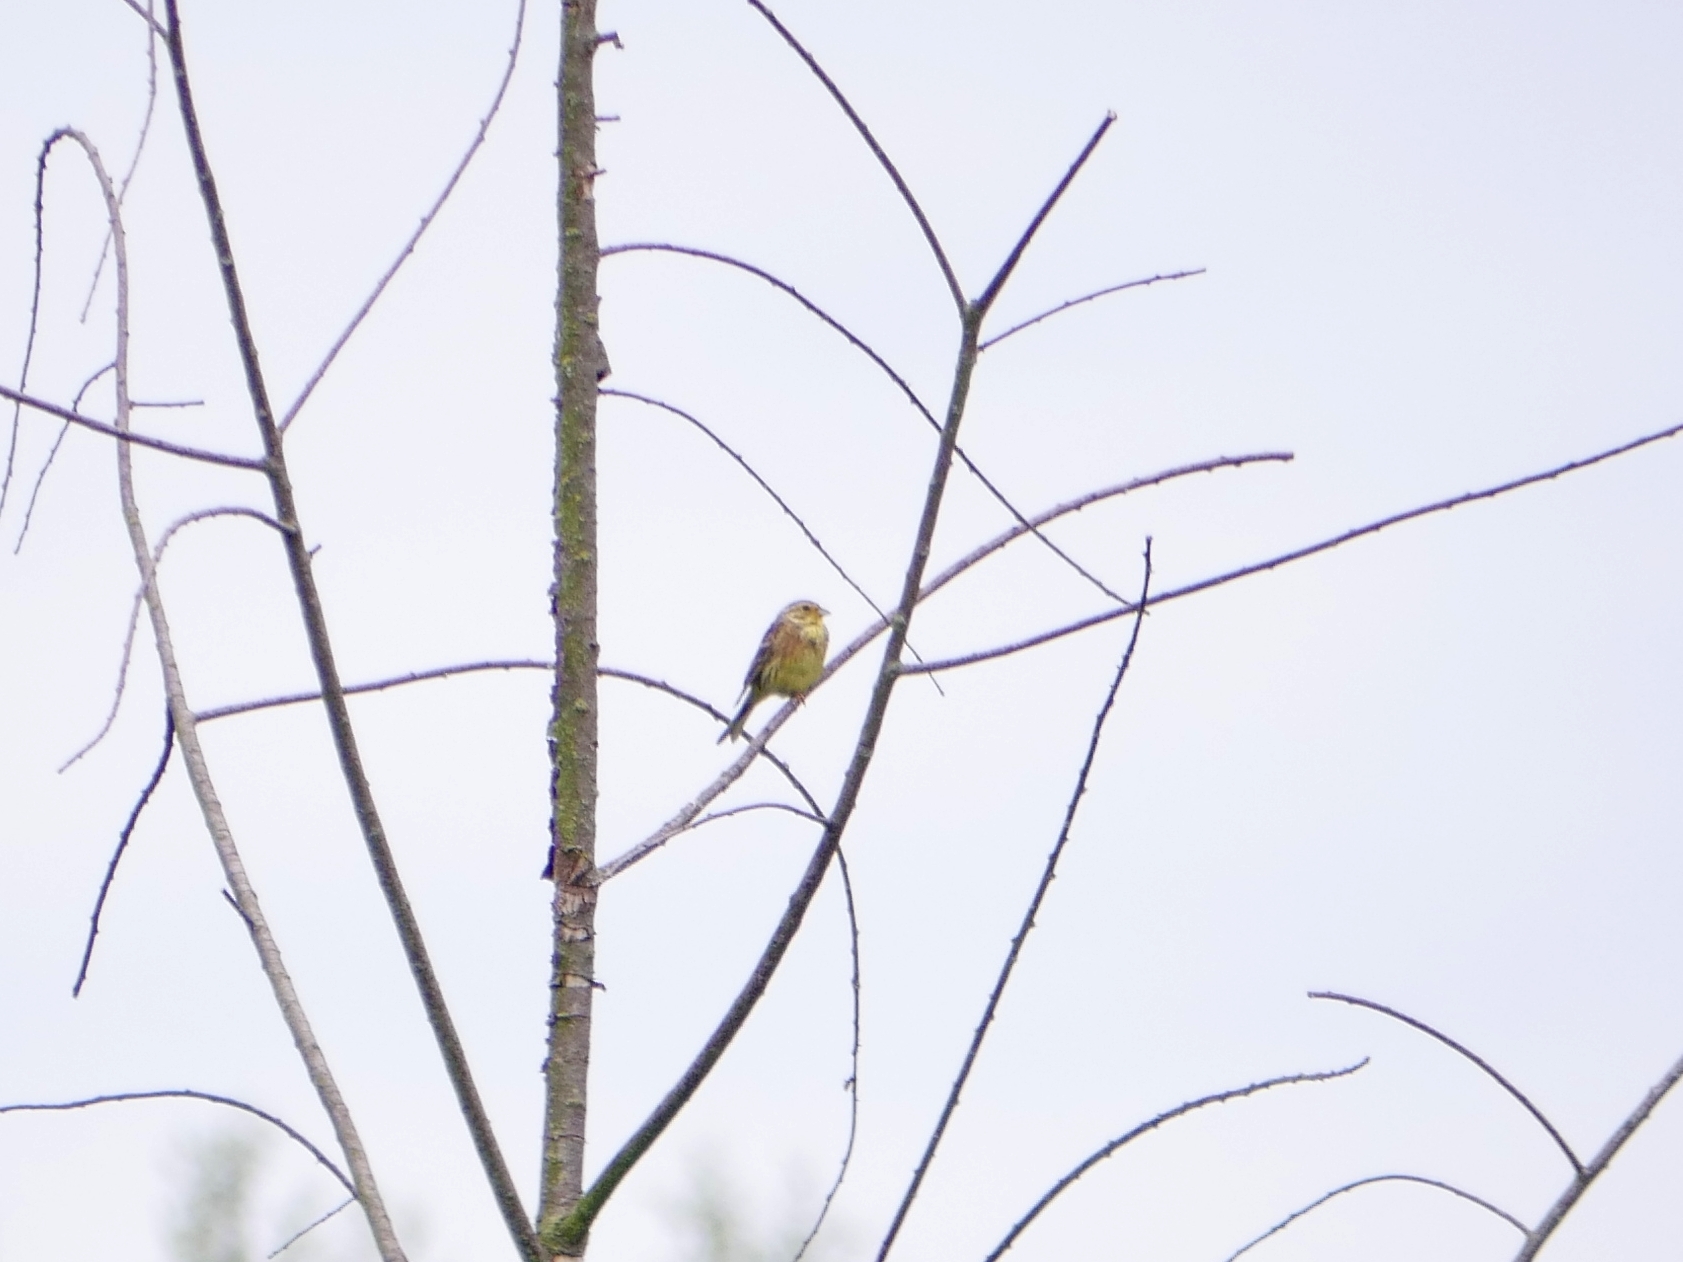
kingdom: Animalia
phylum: Chordata
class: Aves
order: Passeriformes
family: Emberizidae
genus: Emberiza
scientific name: Emberiza citrinella
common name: Yellowhammer
